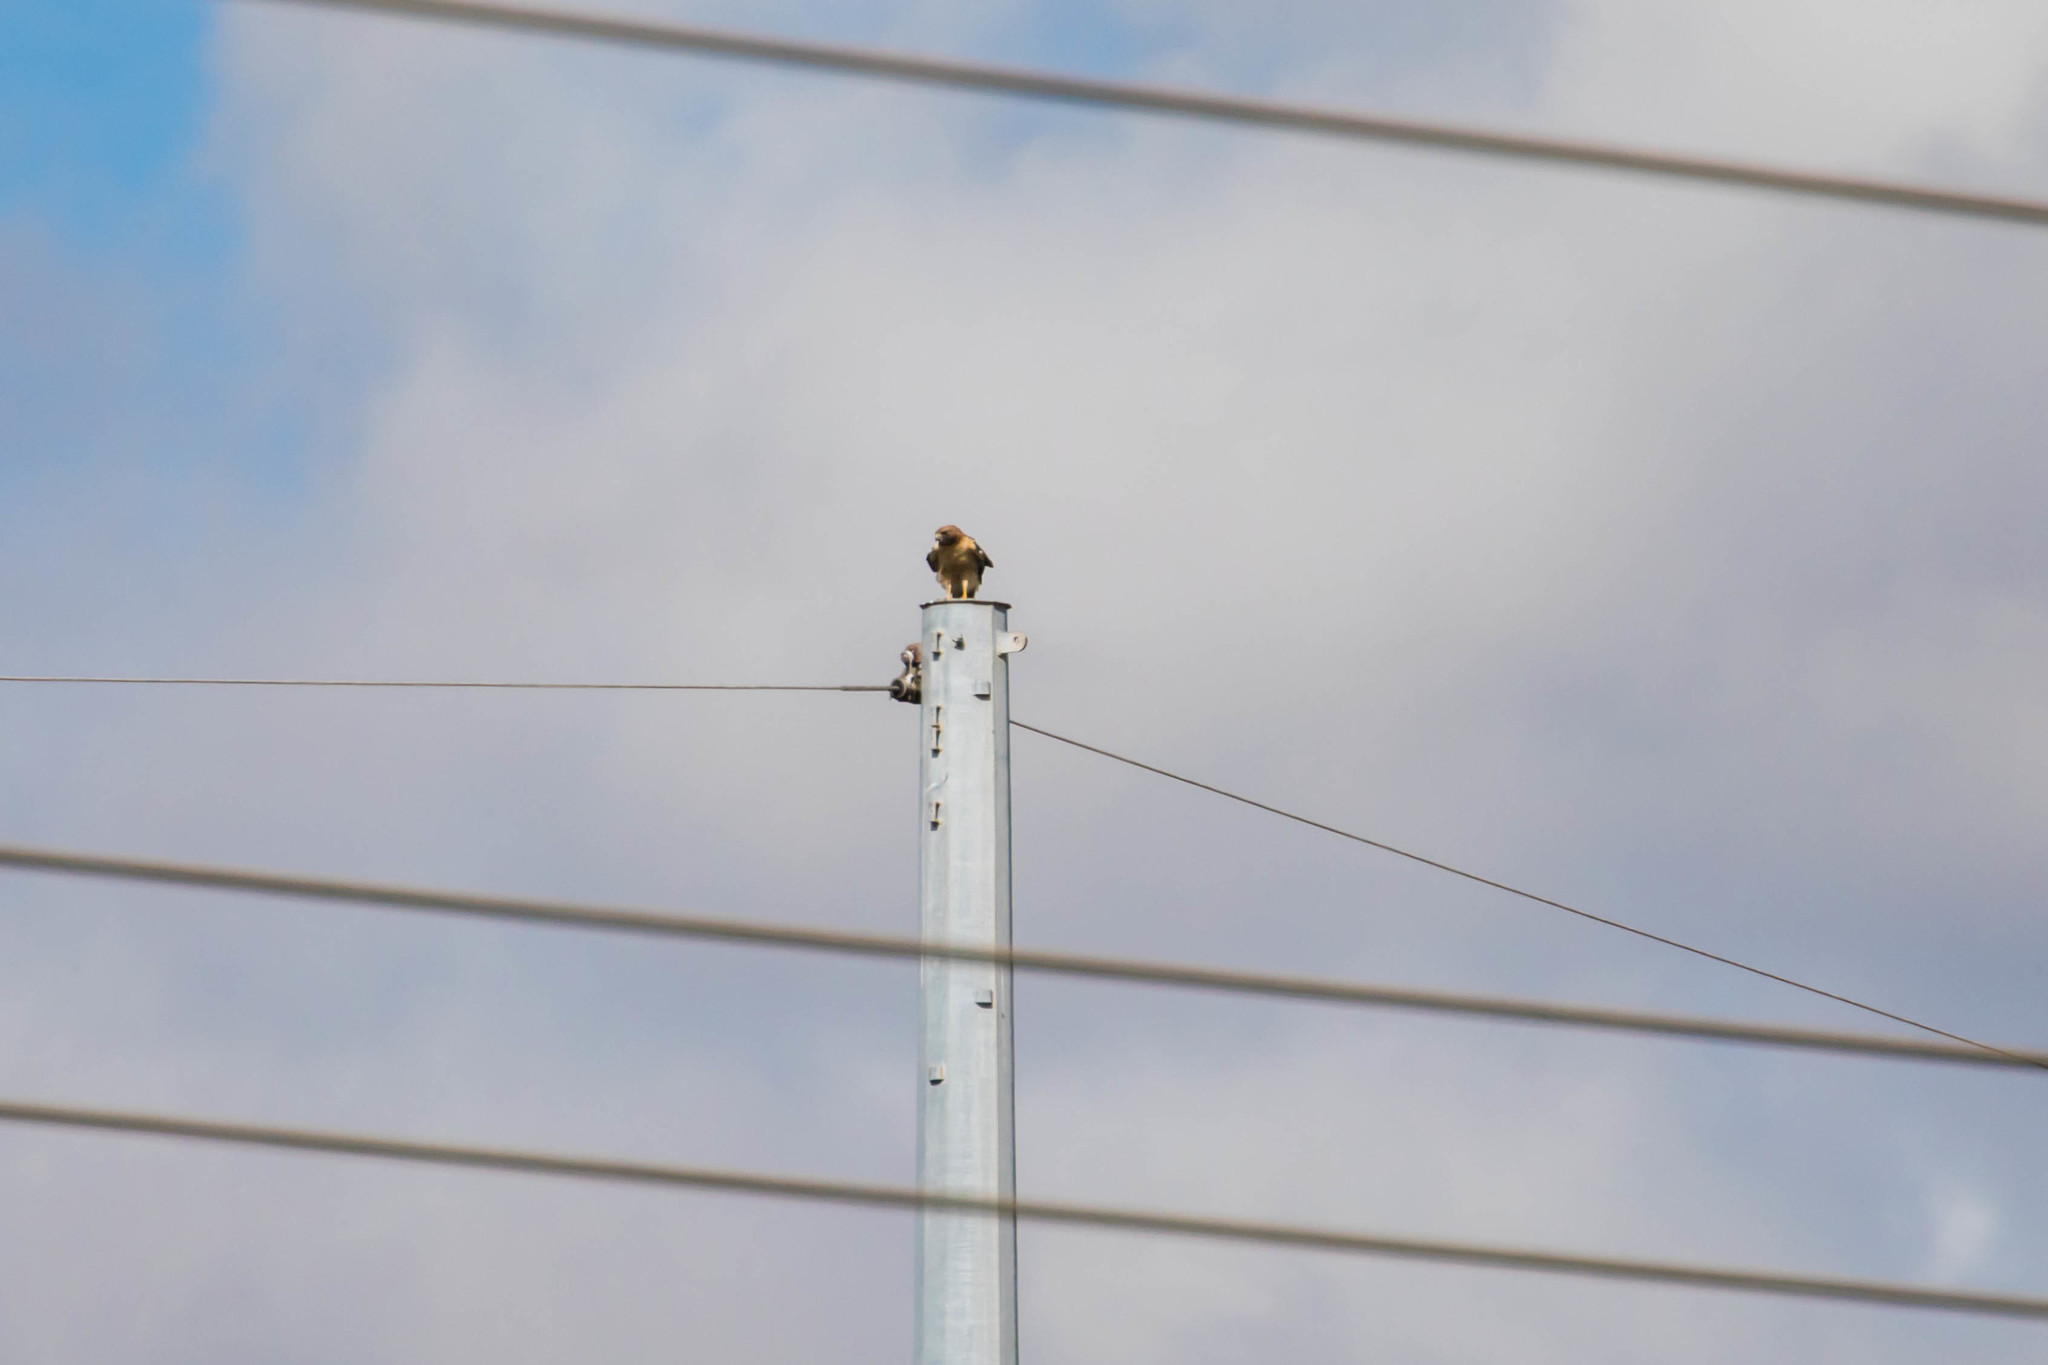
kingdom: Animalia
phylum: Chordata
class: Aves
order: Accipitriformes
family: Accipitridae
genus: Buteo
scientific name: Buteo jamaicensis
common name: Red-tailed hawk
